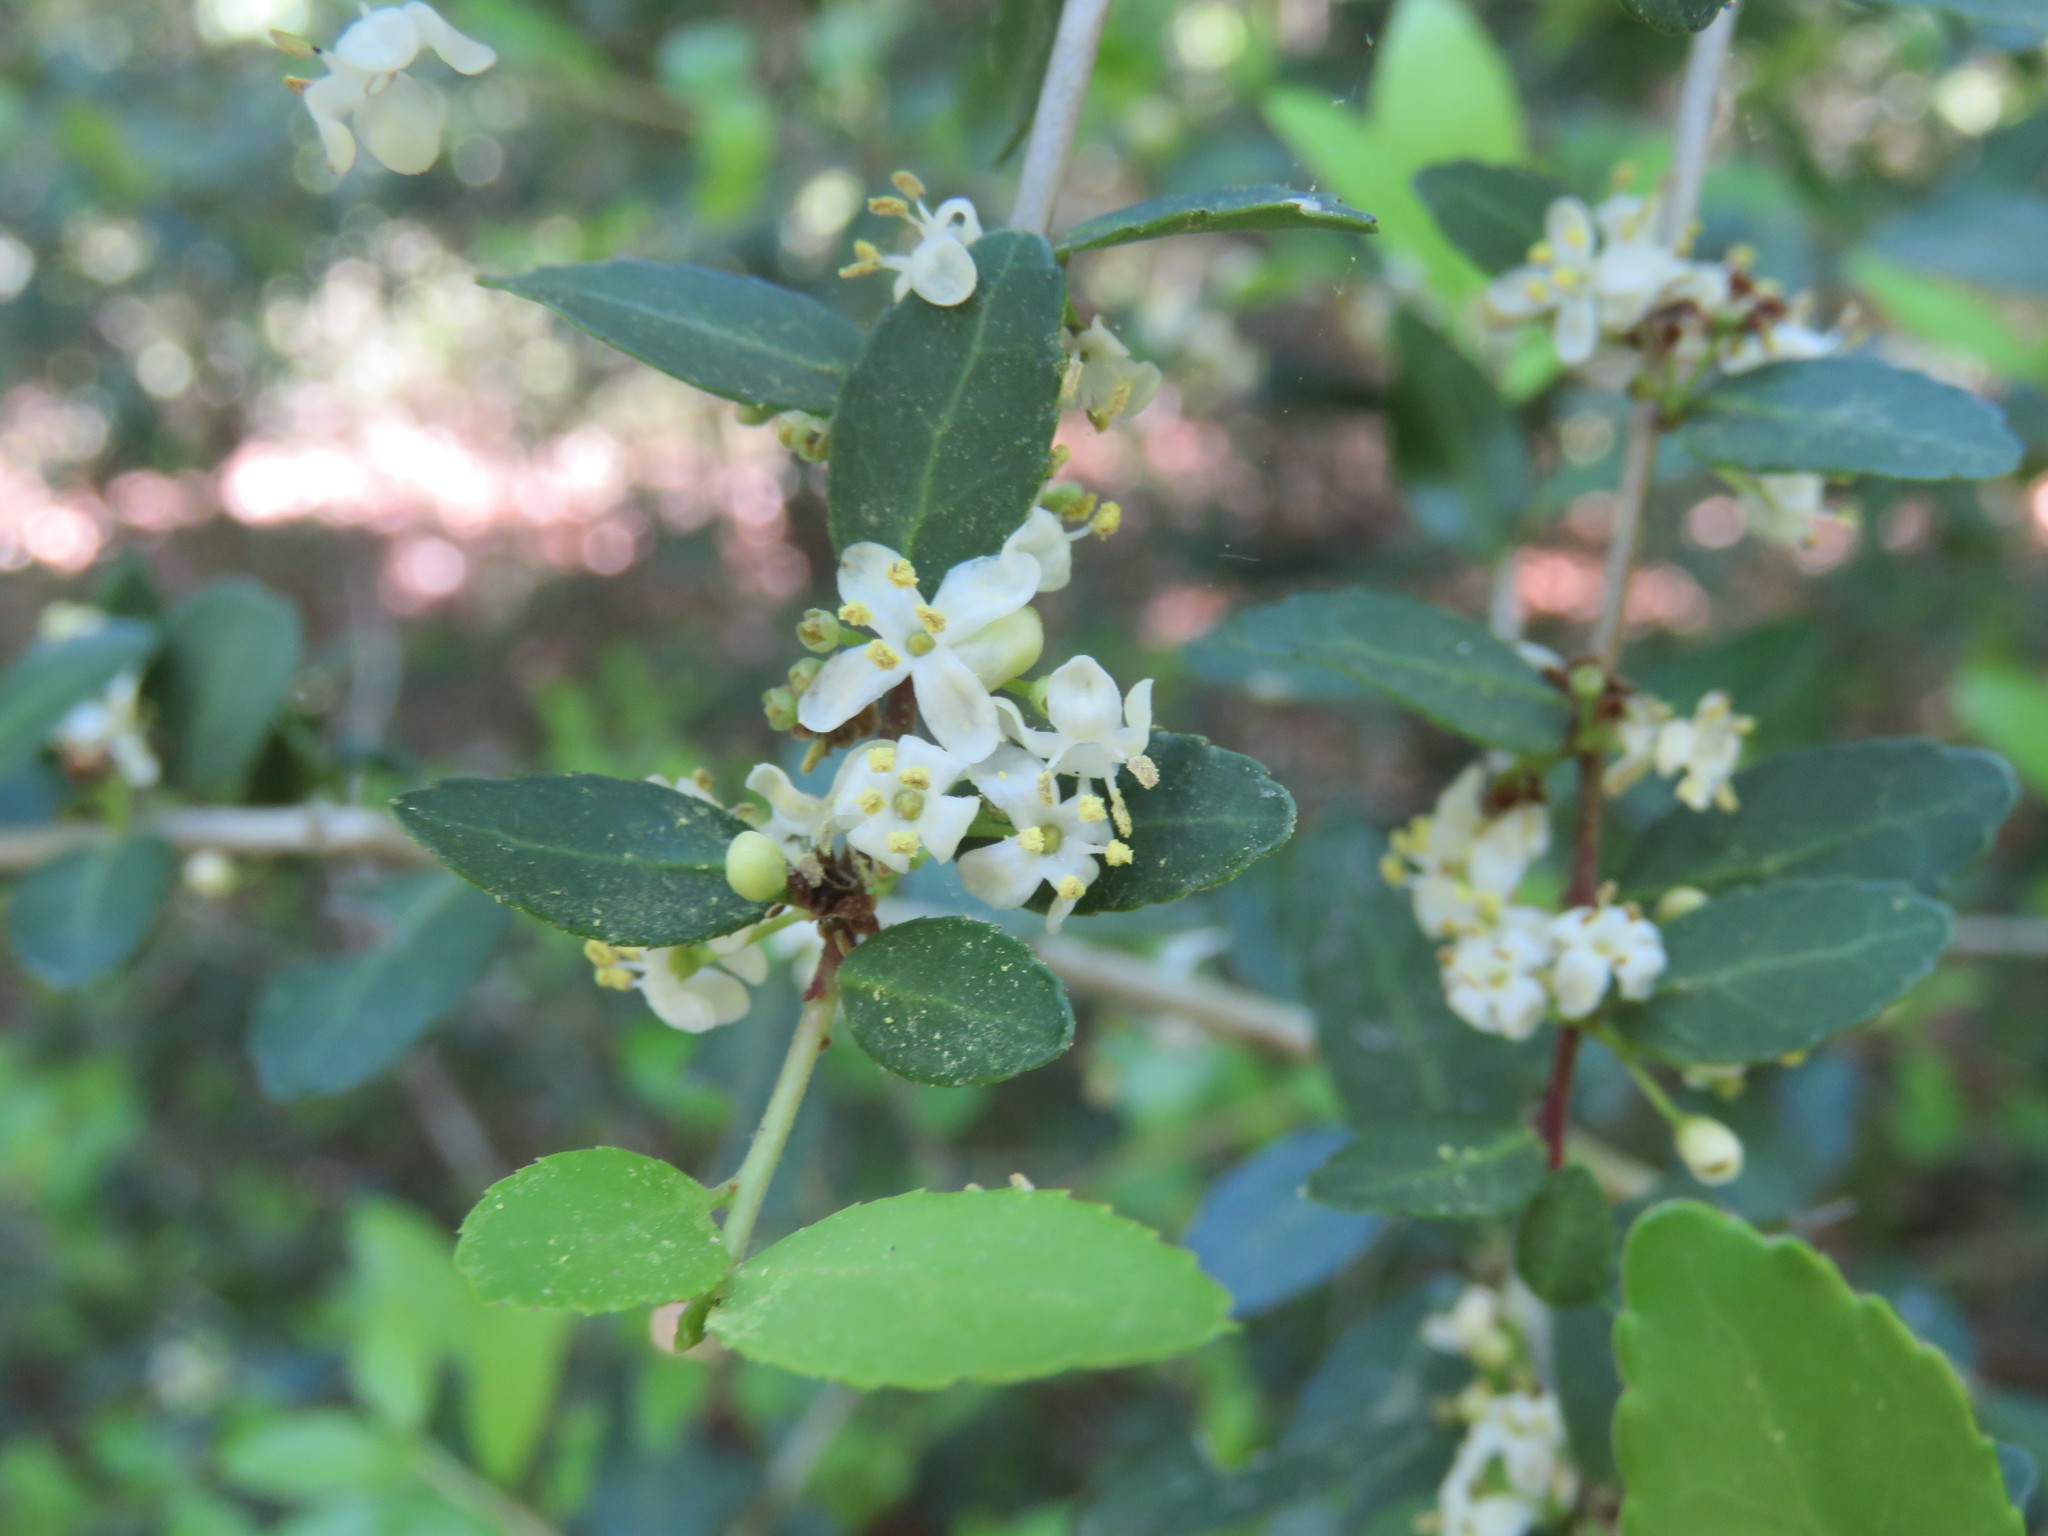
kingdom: Plantae
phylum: Tracheophyta
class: Magnoliopsida
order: Aquifoliales
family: Aquifoliaceae
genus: Ilex
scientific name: Ilex vomitoria
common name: Yaupon holly
